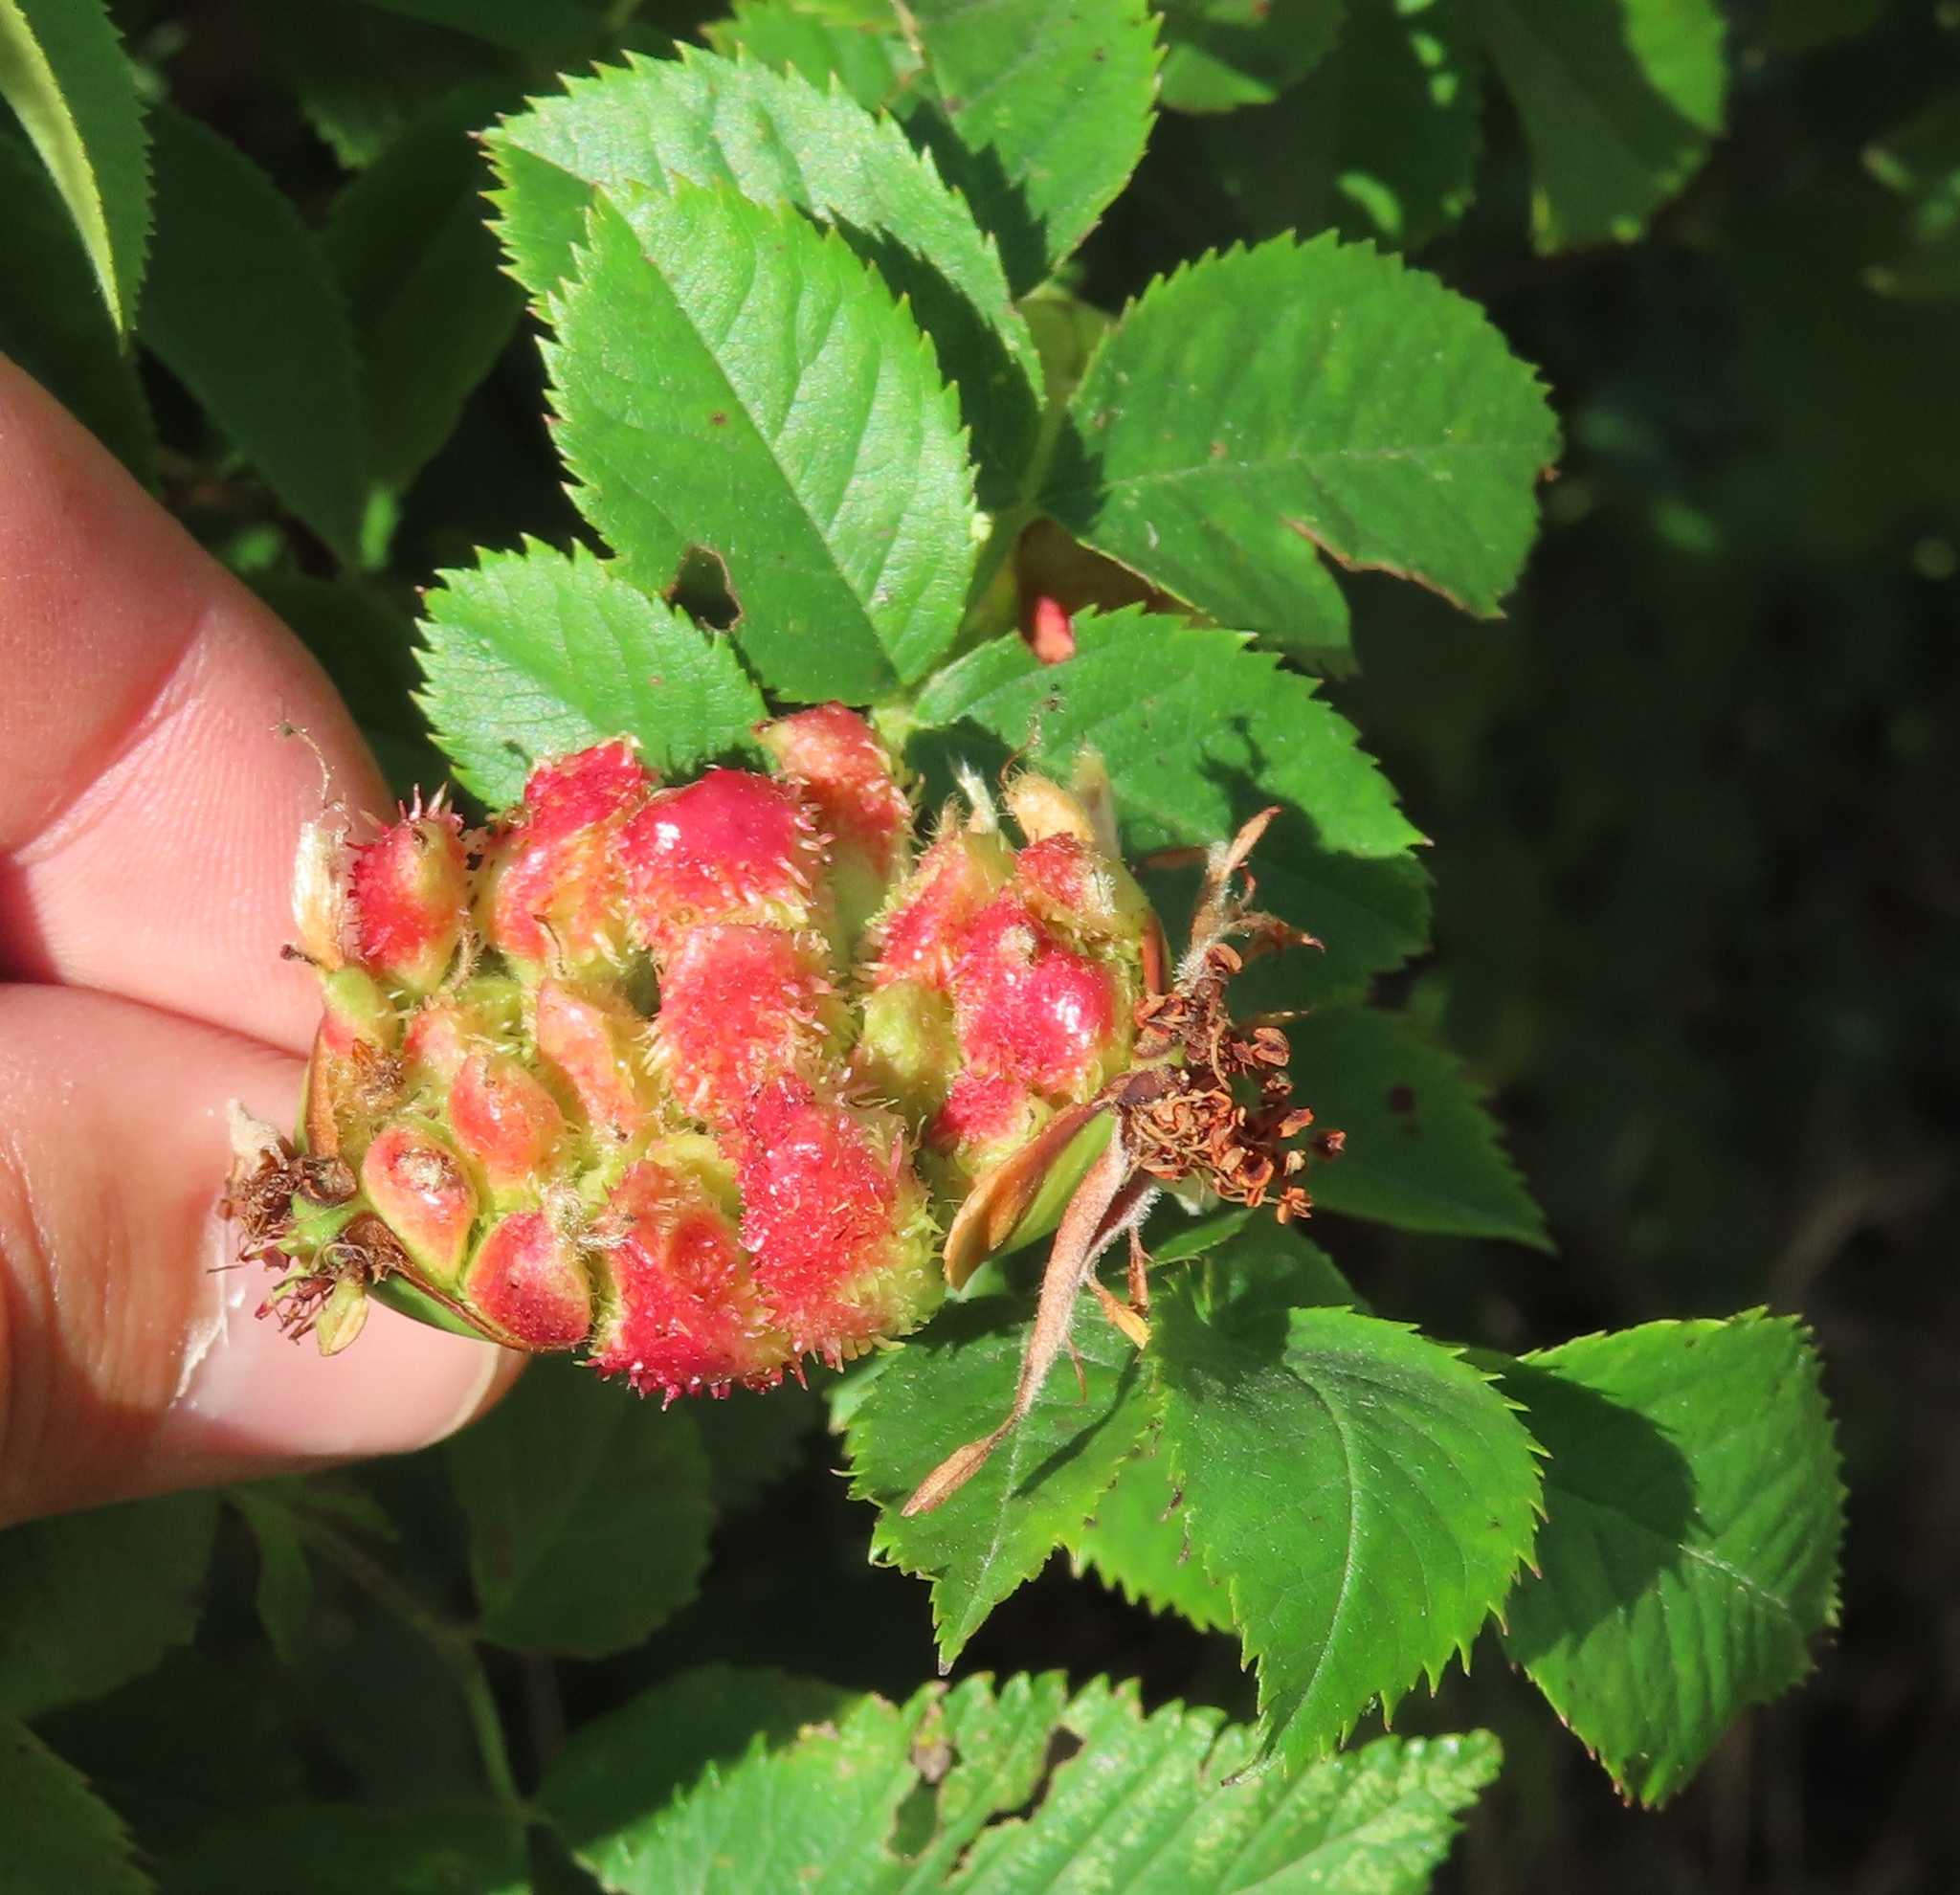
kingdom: Animalia
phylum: Arthropoda
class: Insecta
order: Hymenoptera
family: Cynipidae
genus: Diplolepis
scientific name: Diplolepis fructuum
